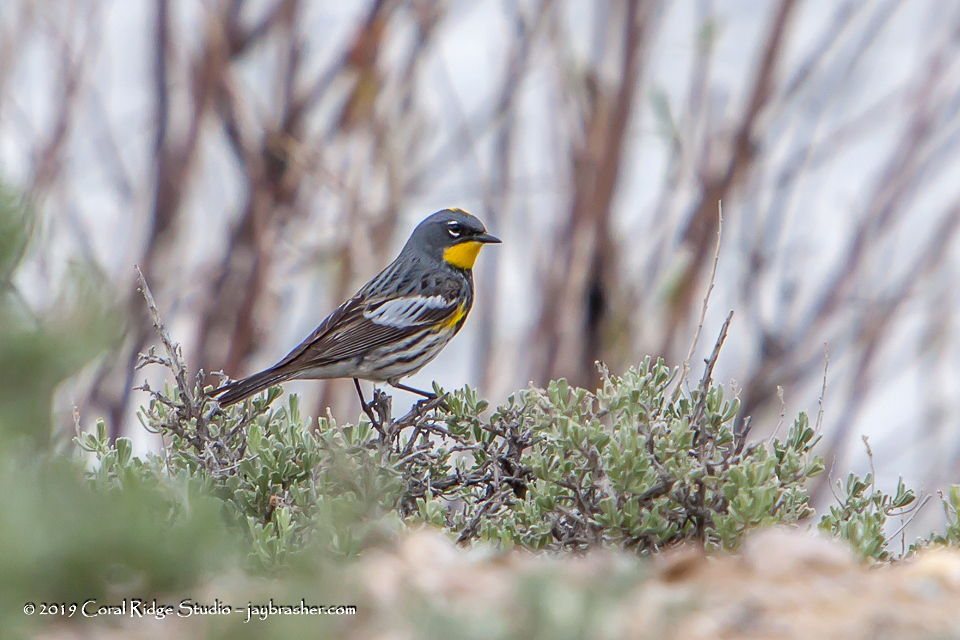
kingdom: Animalia
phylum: Chordata
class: Aves
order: Passeriformes
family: Parulidae
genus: Setophaga
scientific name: Setophaga auduboni
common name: Audubon's warbler
